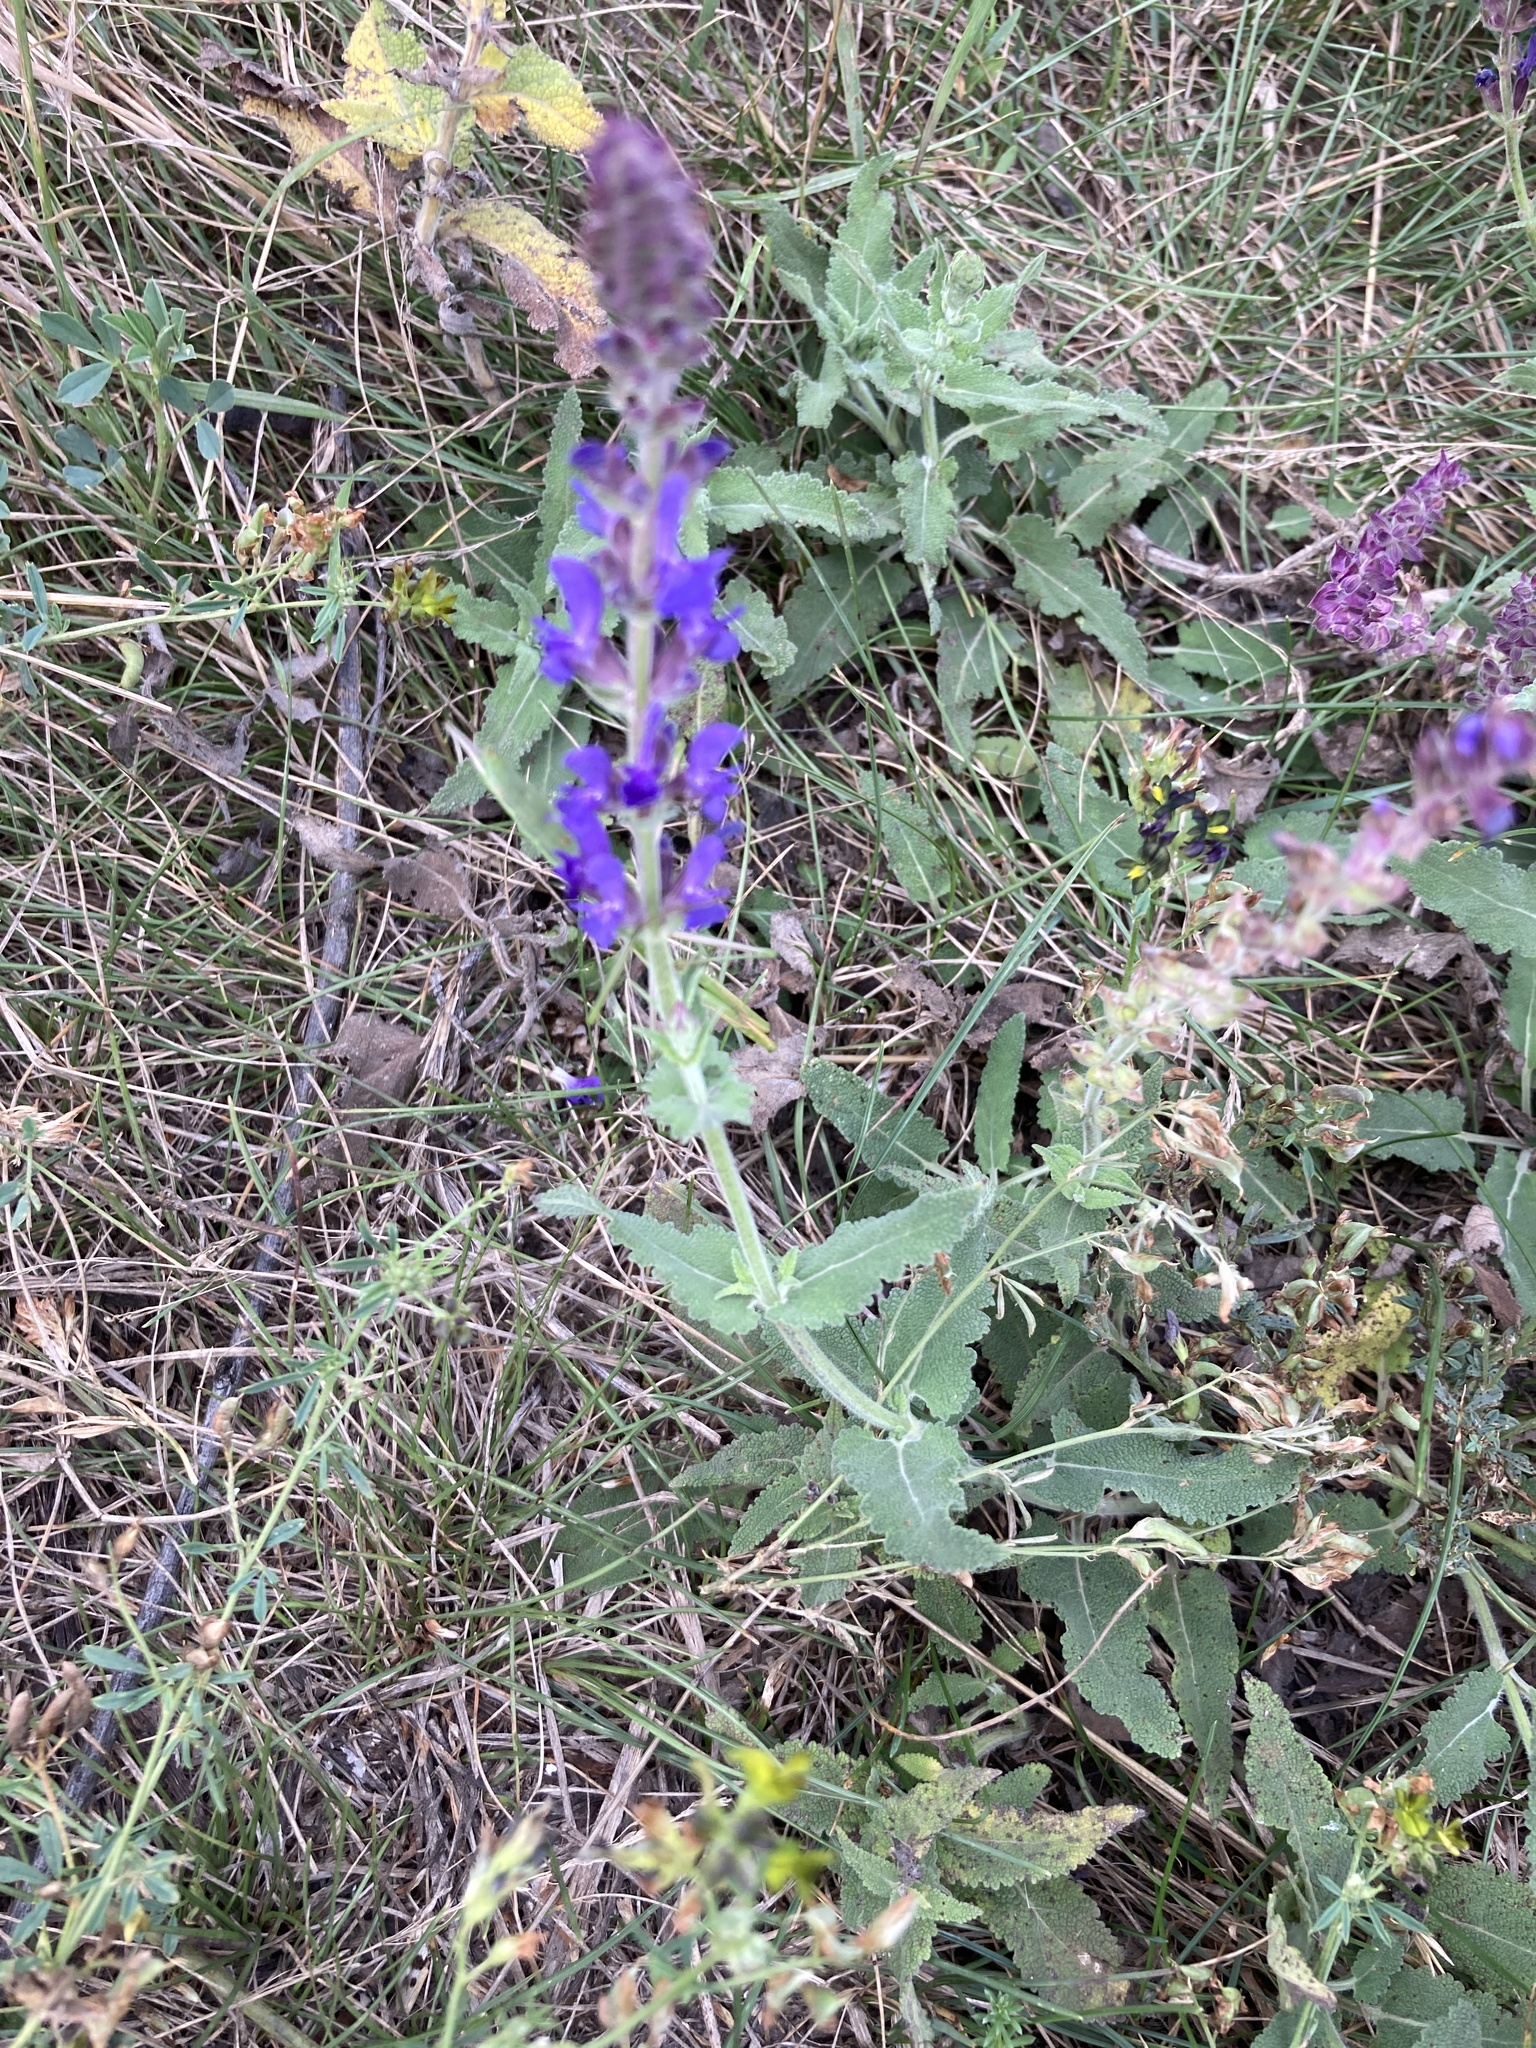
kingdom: Plantae
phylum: Tracheophyta
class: Magnoliopsida
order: Lamiales
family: Lamiaceae
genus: Salvia
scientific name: Salvia nemorosa
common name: Balkan clary
